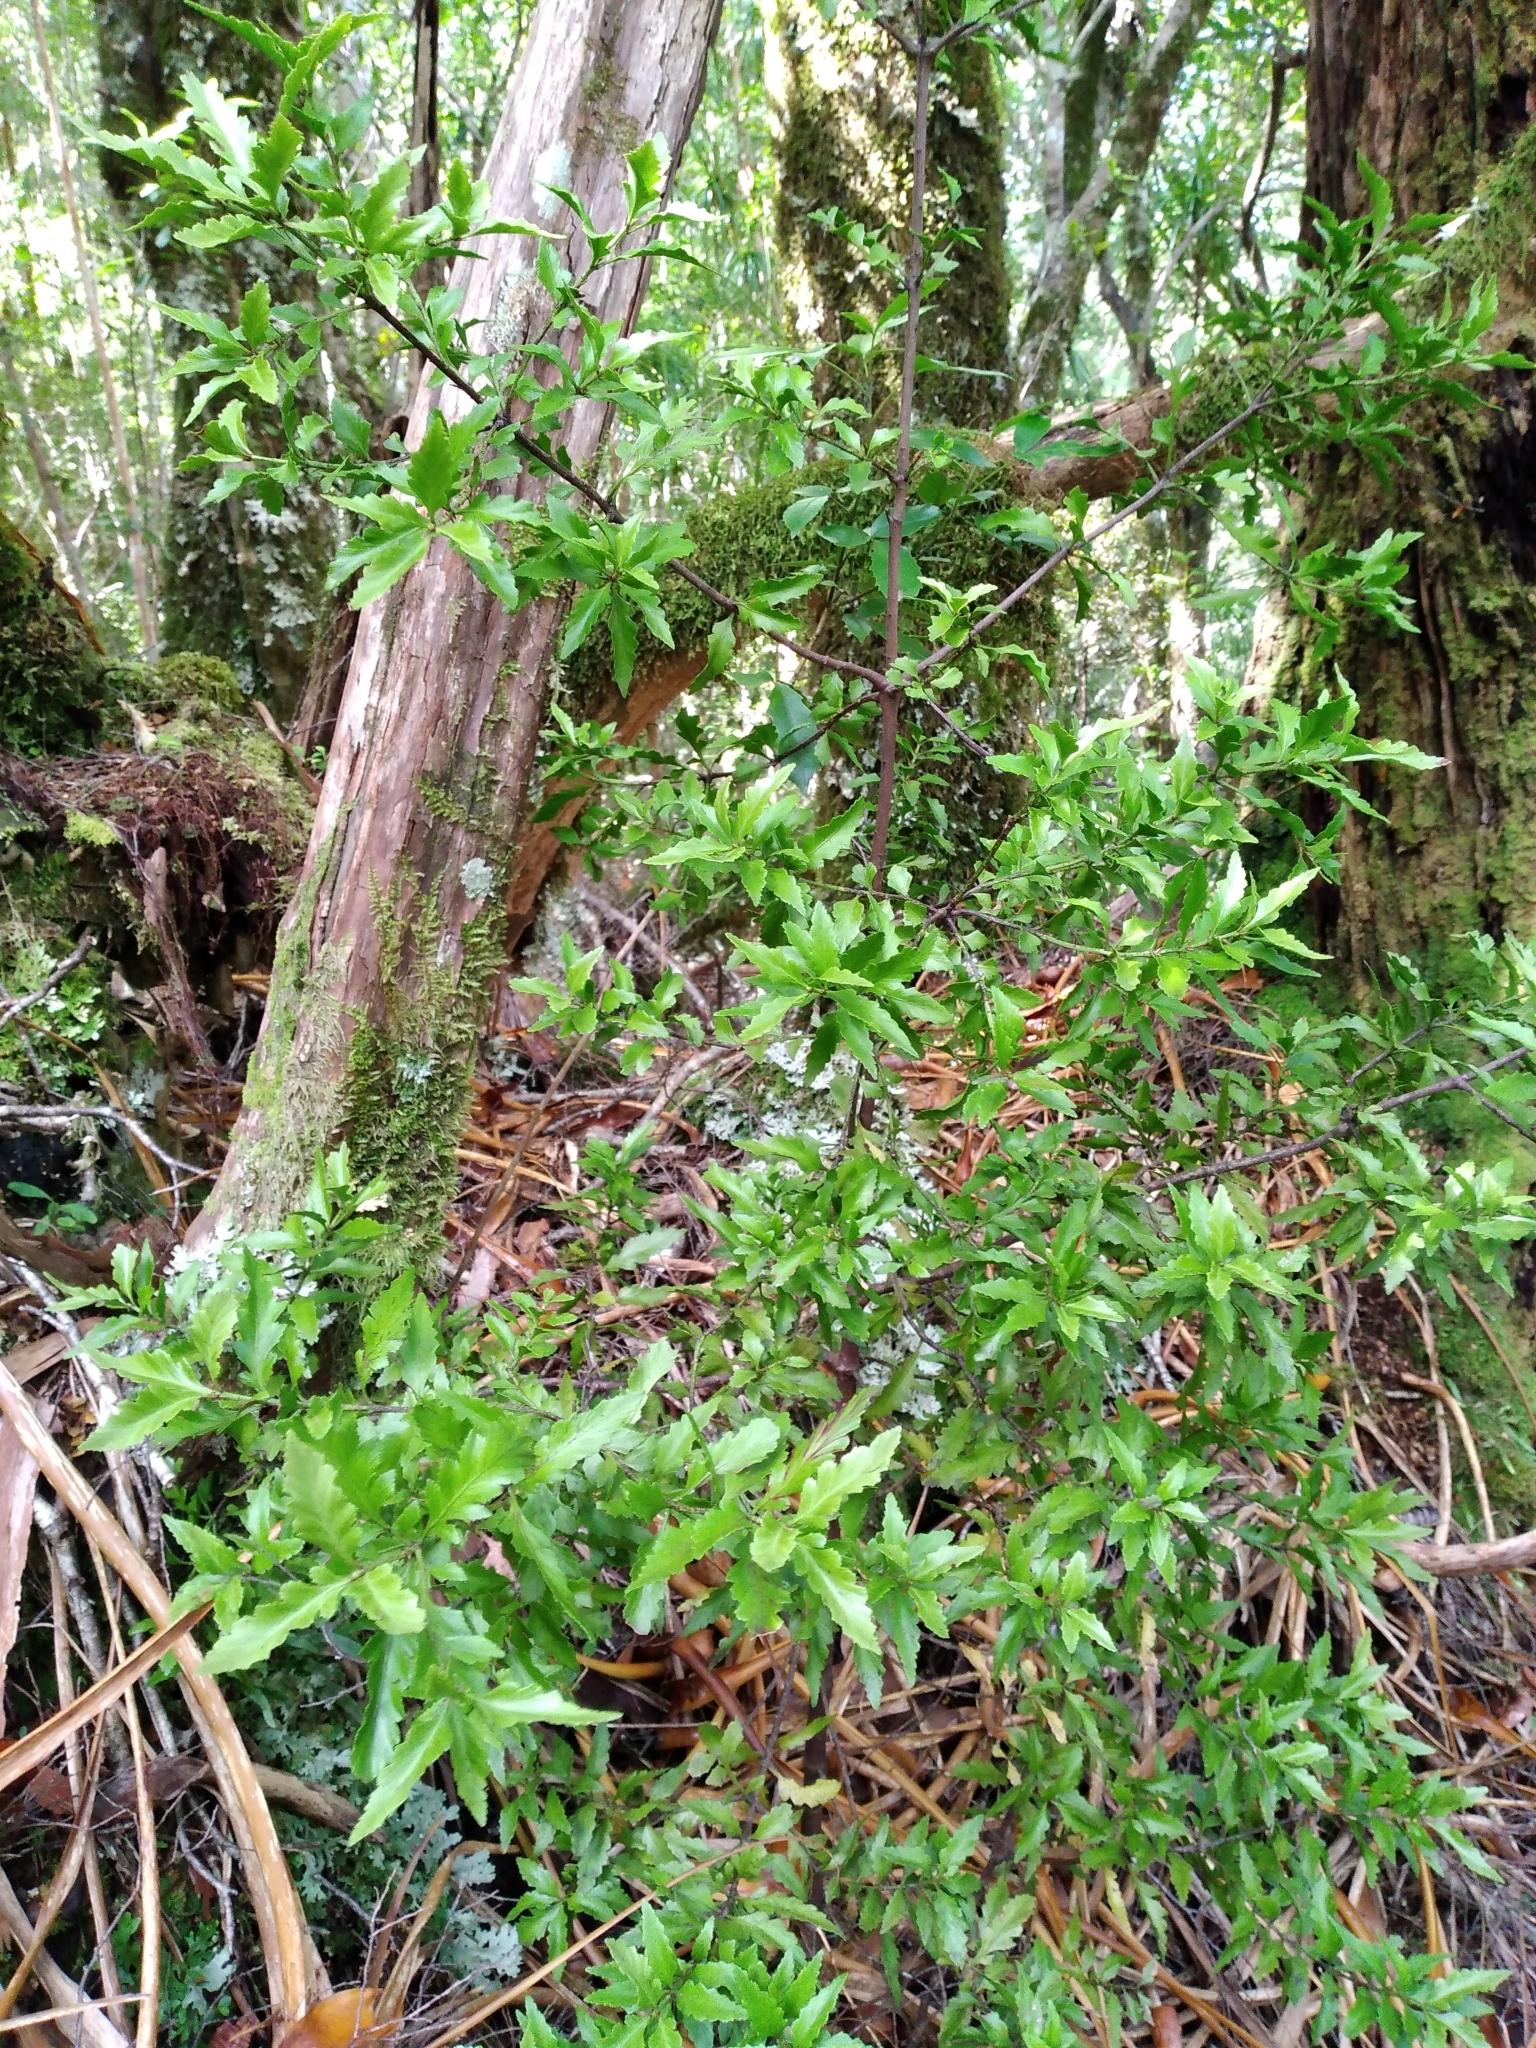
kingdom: Plantae
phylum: Tracheophyta
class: Pinopsida
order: Pinales
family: Phyllocladaceae
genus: Phyllocladus
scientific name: Phyllocladus trichomanoides
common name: Celery pine
